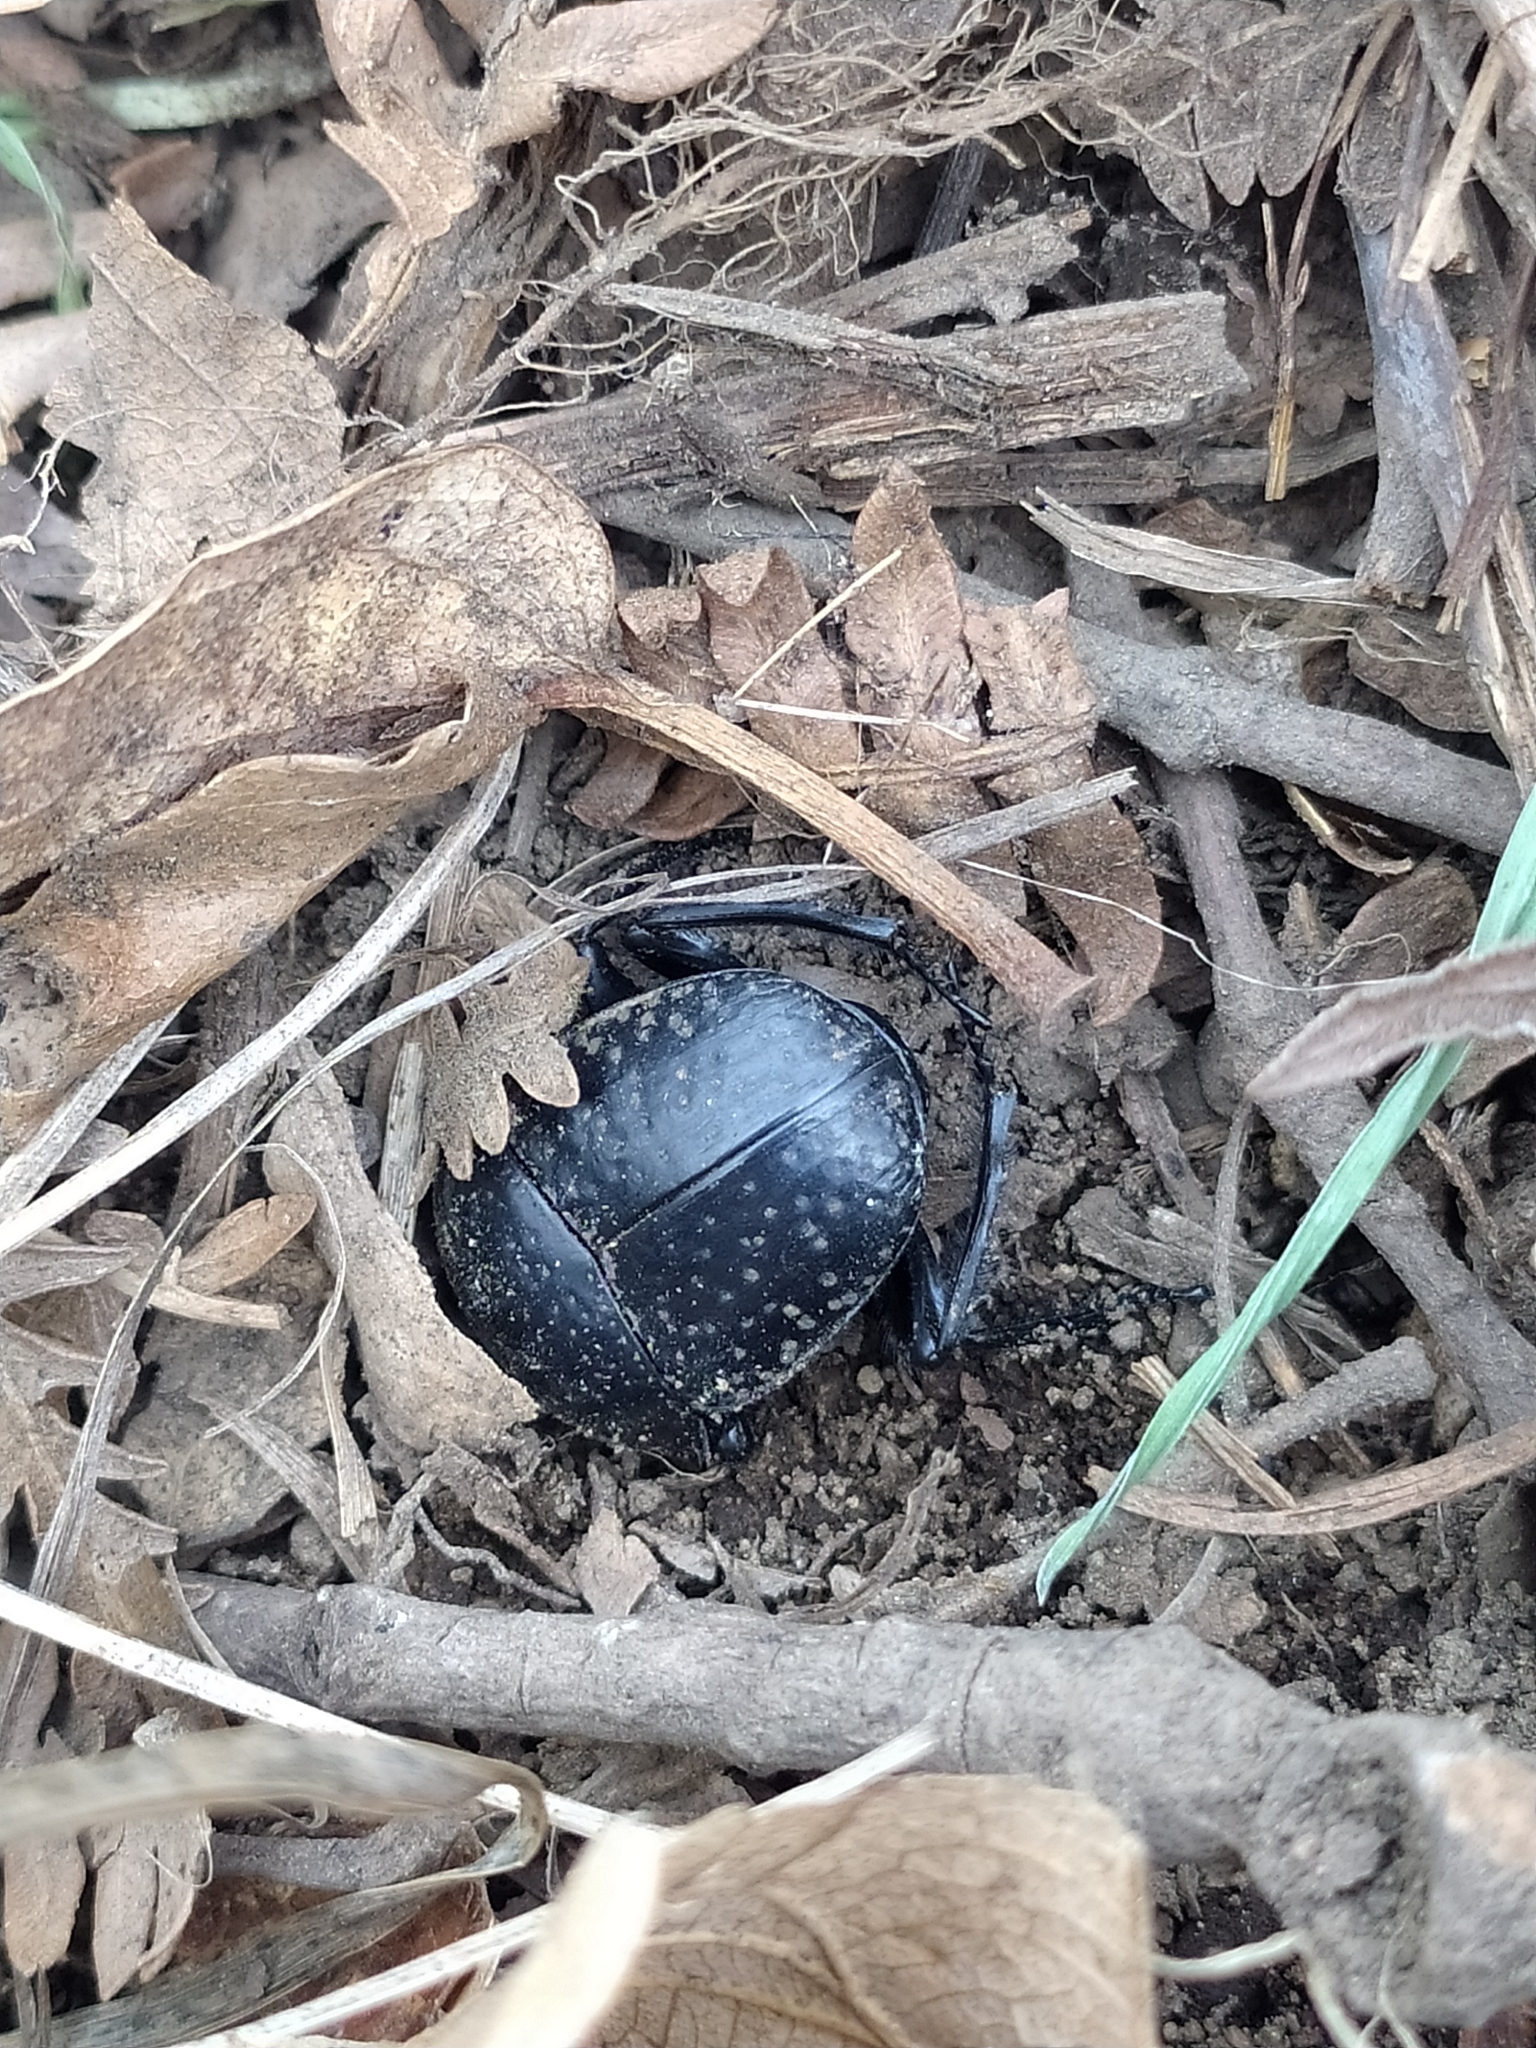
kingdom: Animalia
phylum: Arthropoda
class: Insecta
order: Coleoptera
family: Scarabaeidae
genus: Ateuchetus
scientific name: Ateuchetus
